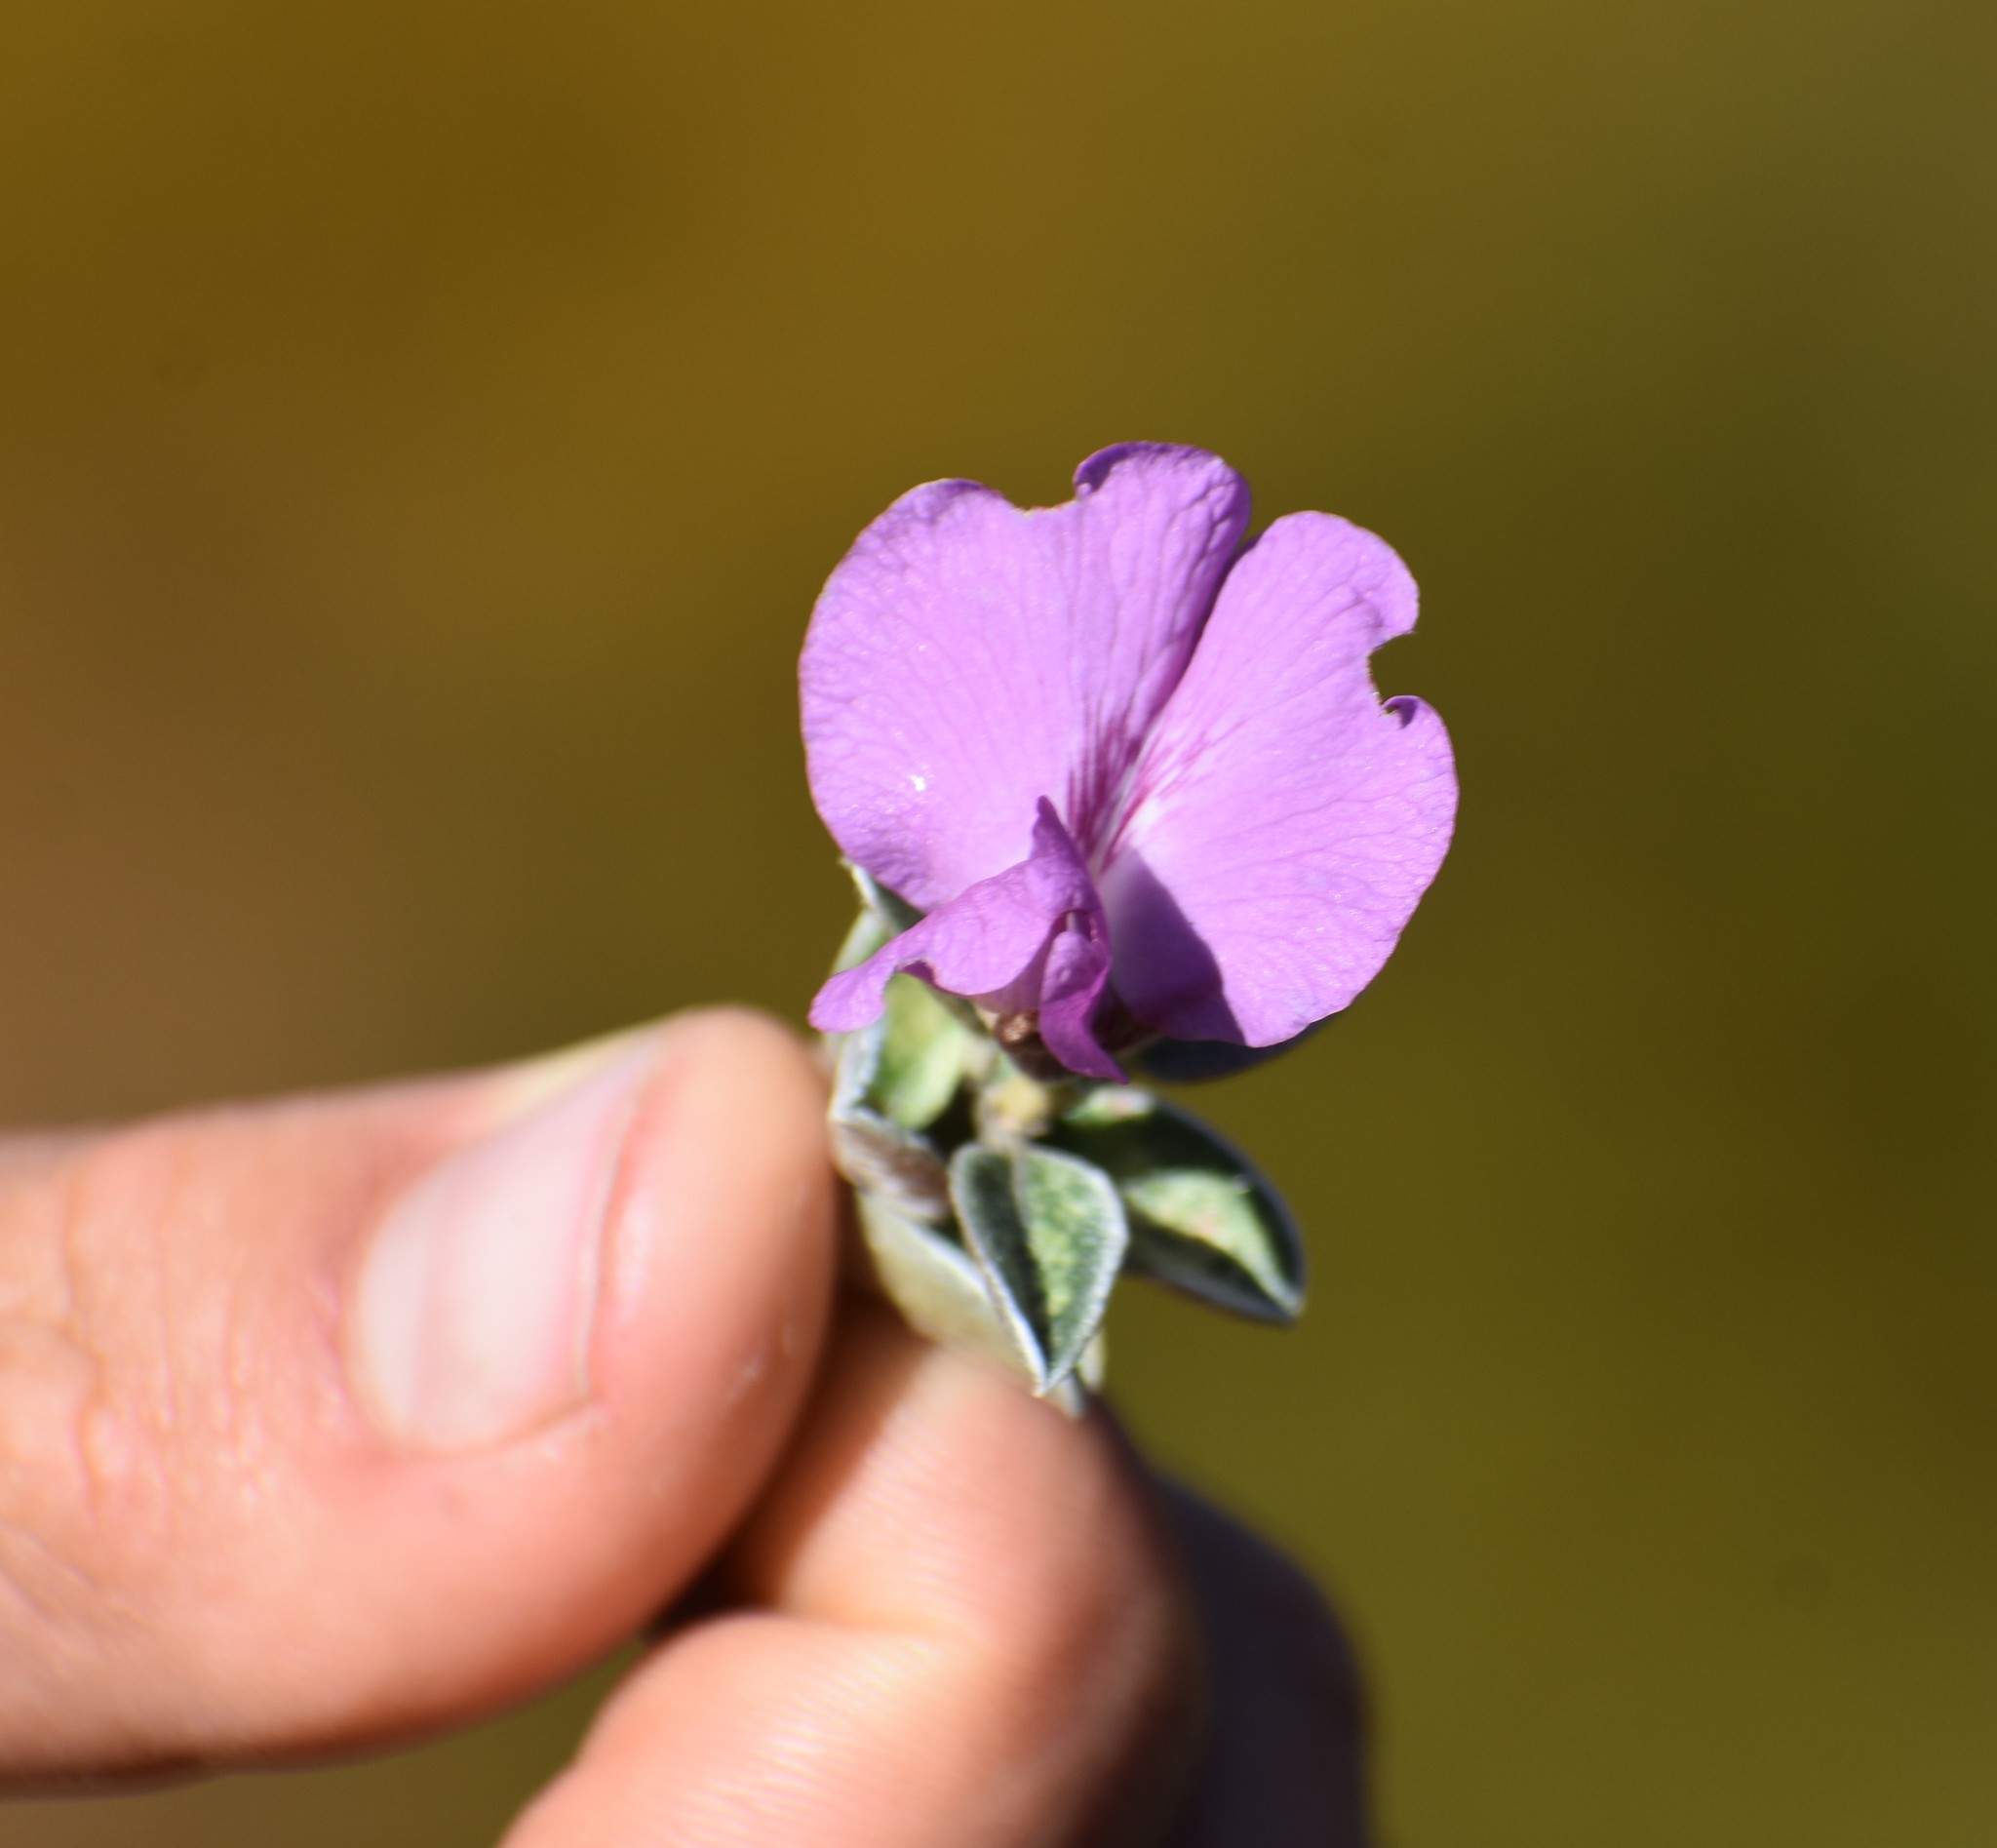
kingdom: Plantae
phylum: Tracheophyta
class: Magnoliopsida
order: Fabales
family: Fabaceae
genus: Podalyria
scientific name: Podalyria burchellii
